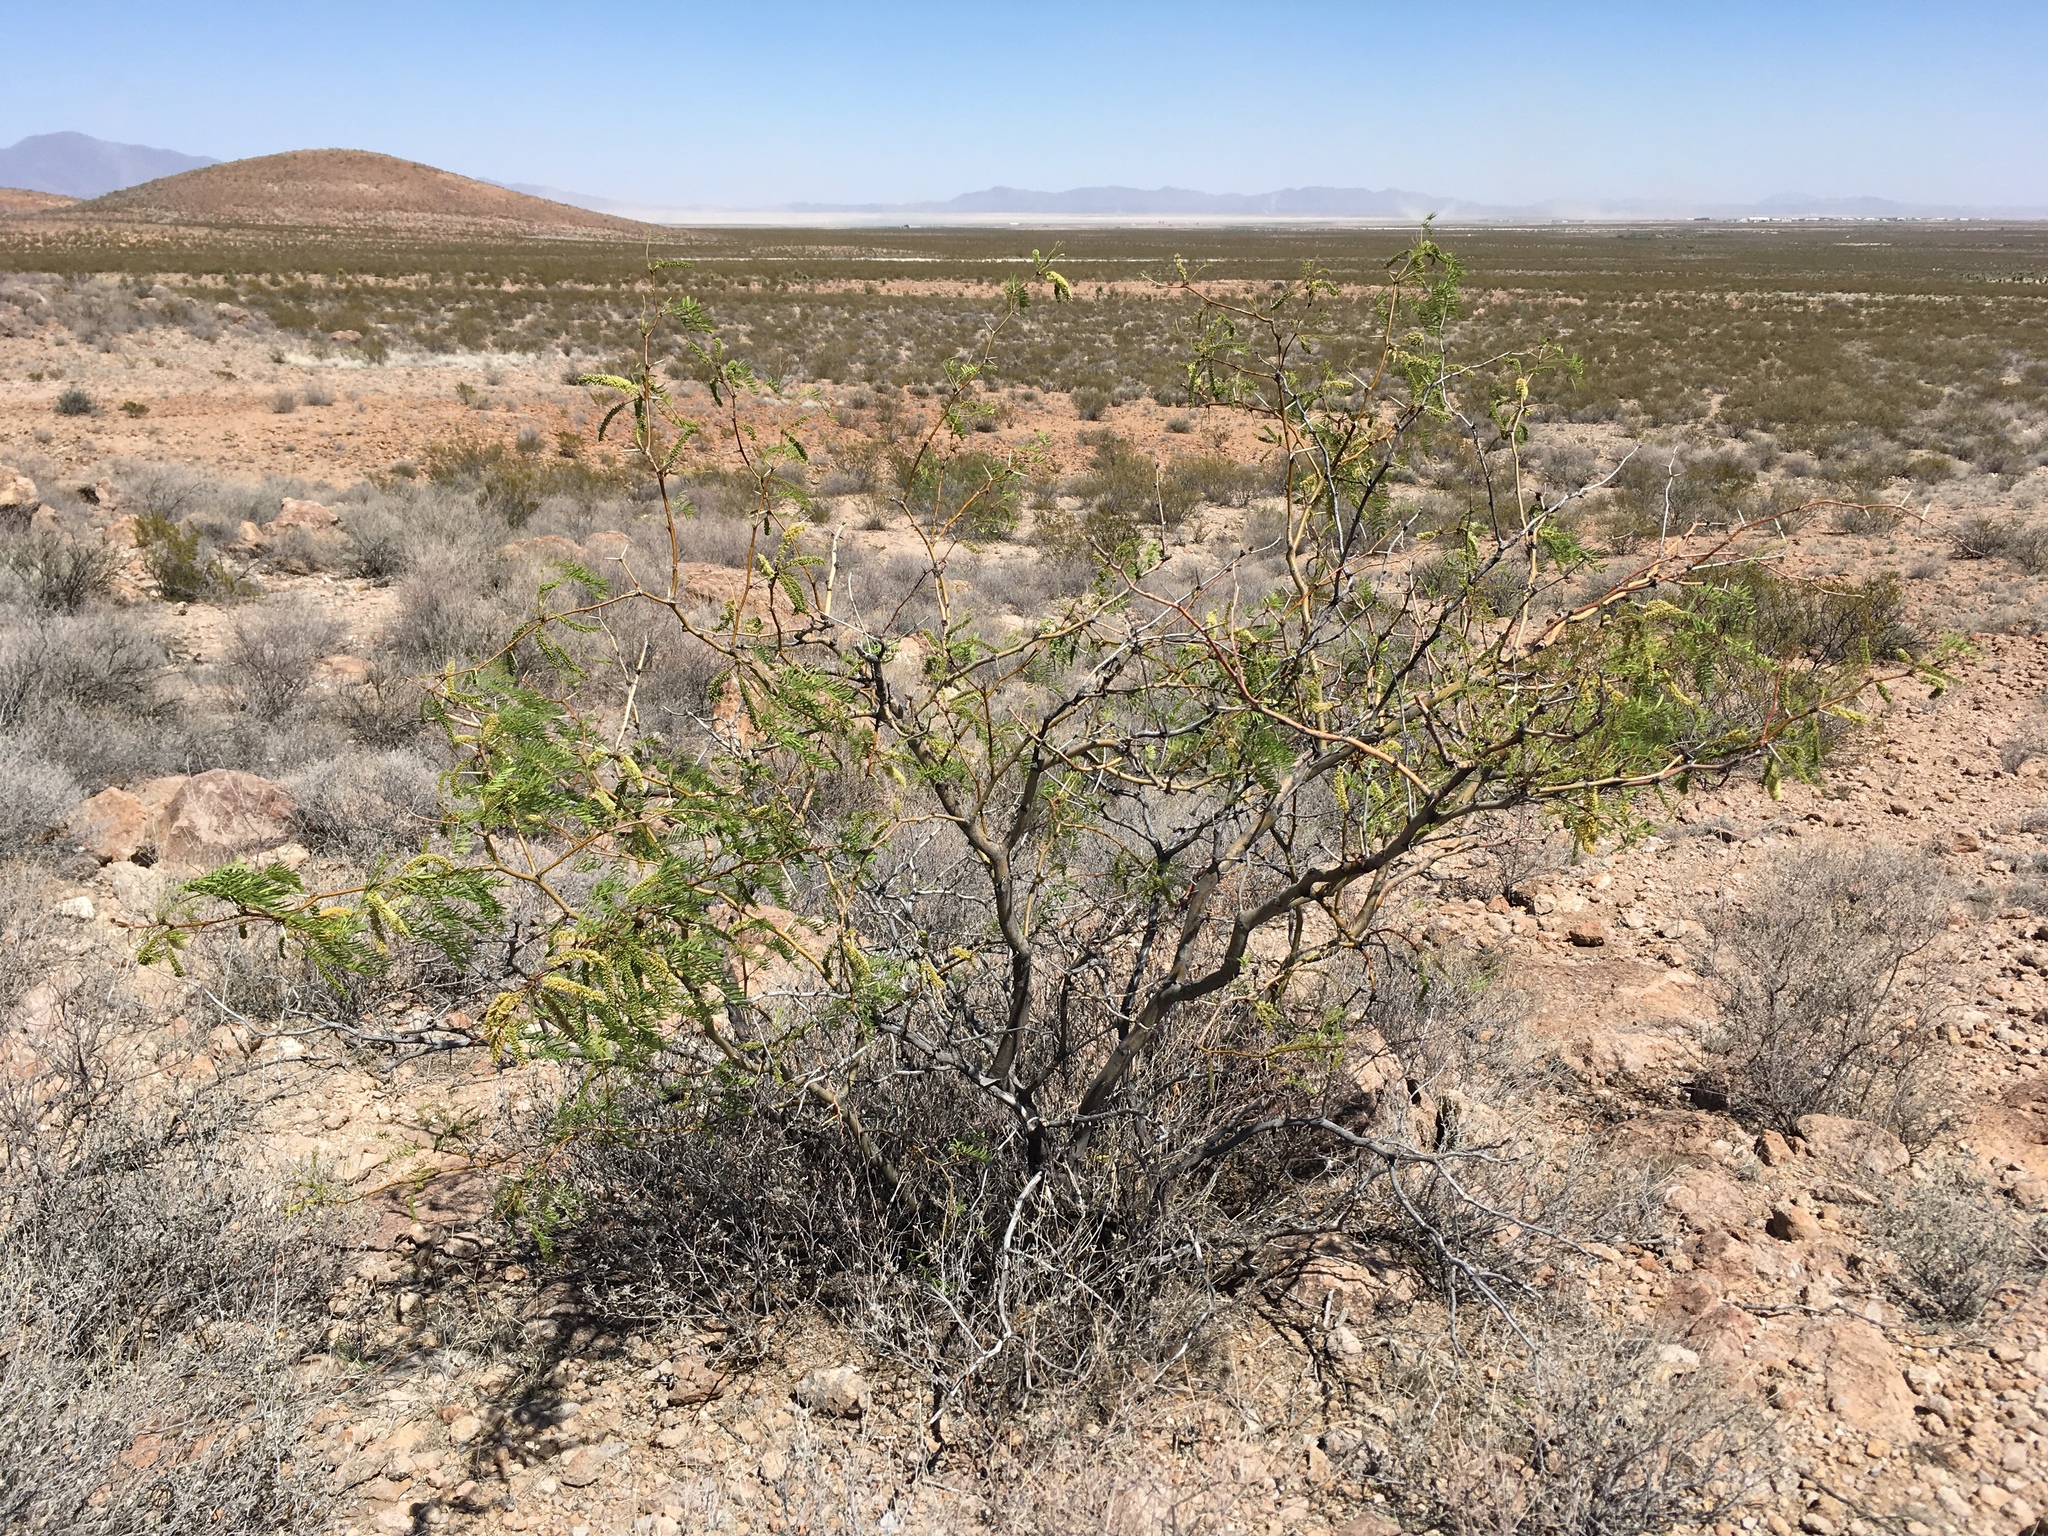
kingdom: Plantae
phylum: Tracheophyta
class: Magnoliopsida
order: Fabales
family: Fabaceae
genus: Prosopis
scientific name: Prosopis glandulosa
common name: Honey mesquite
